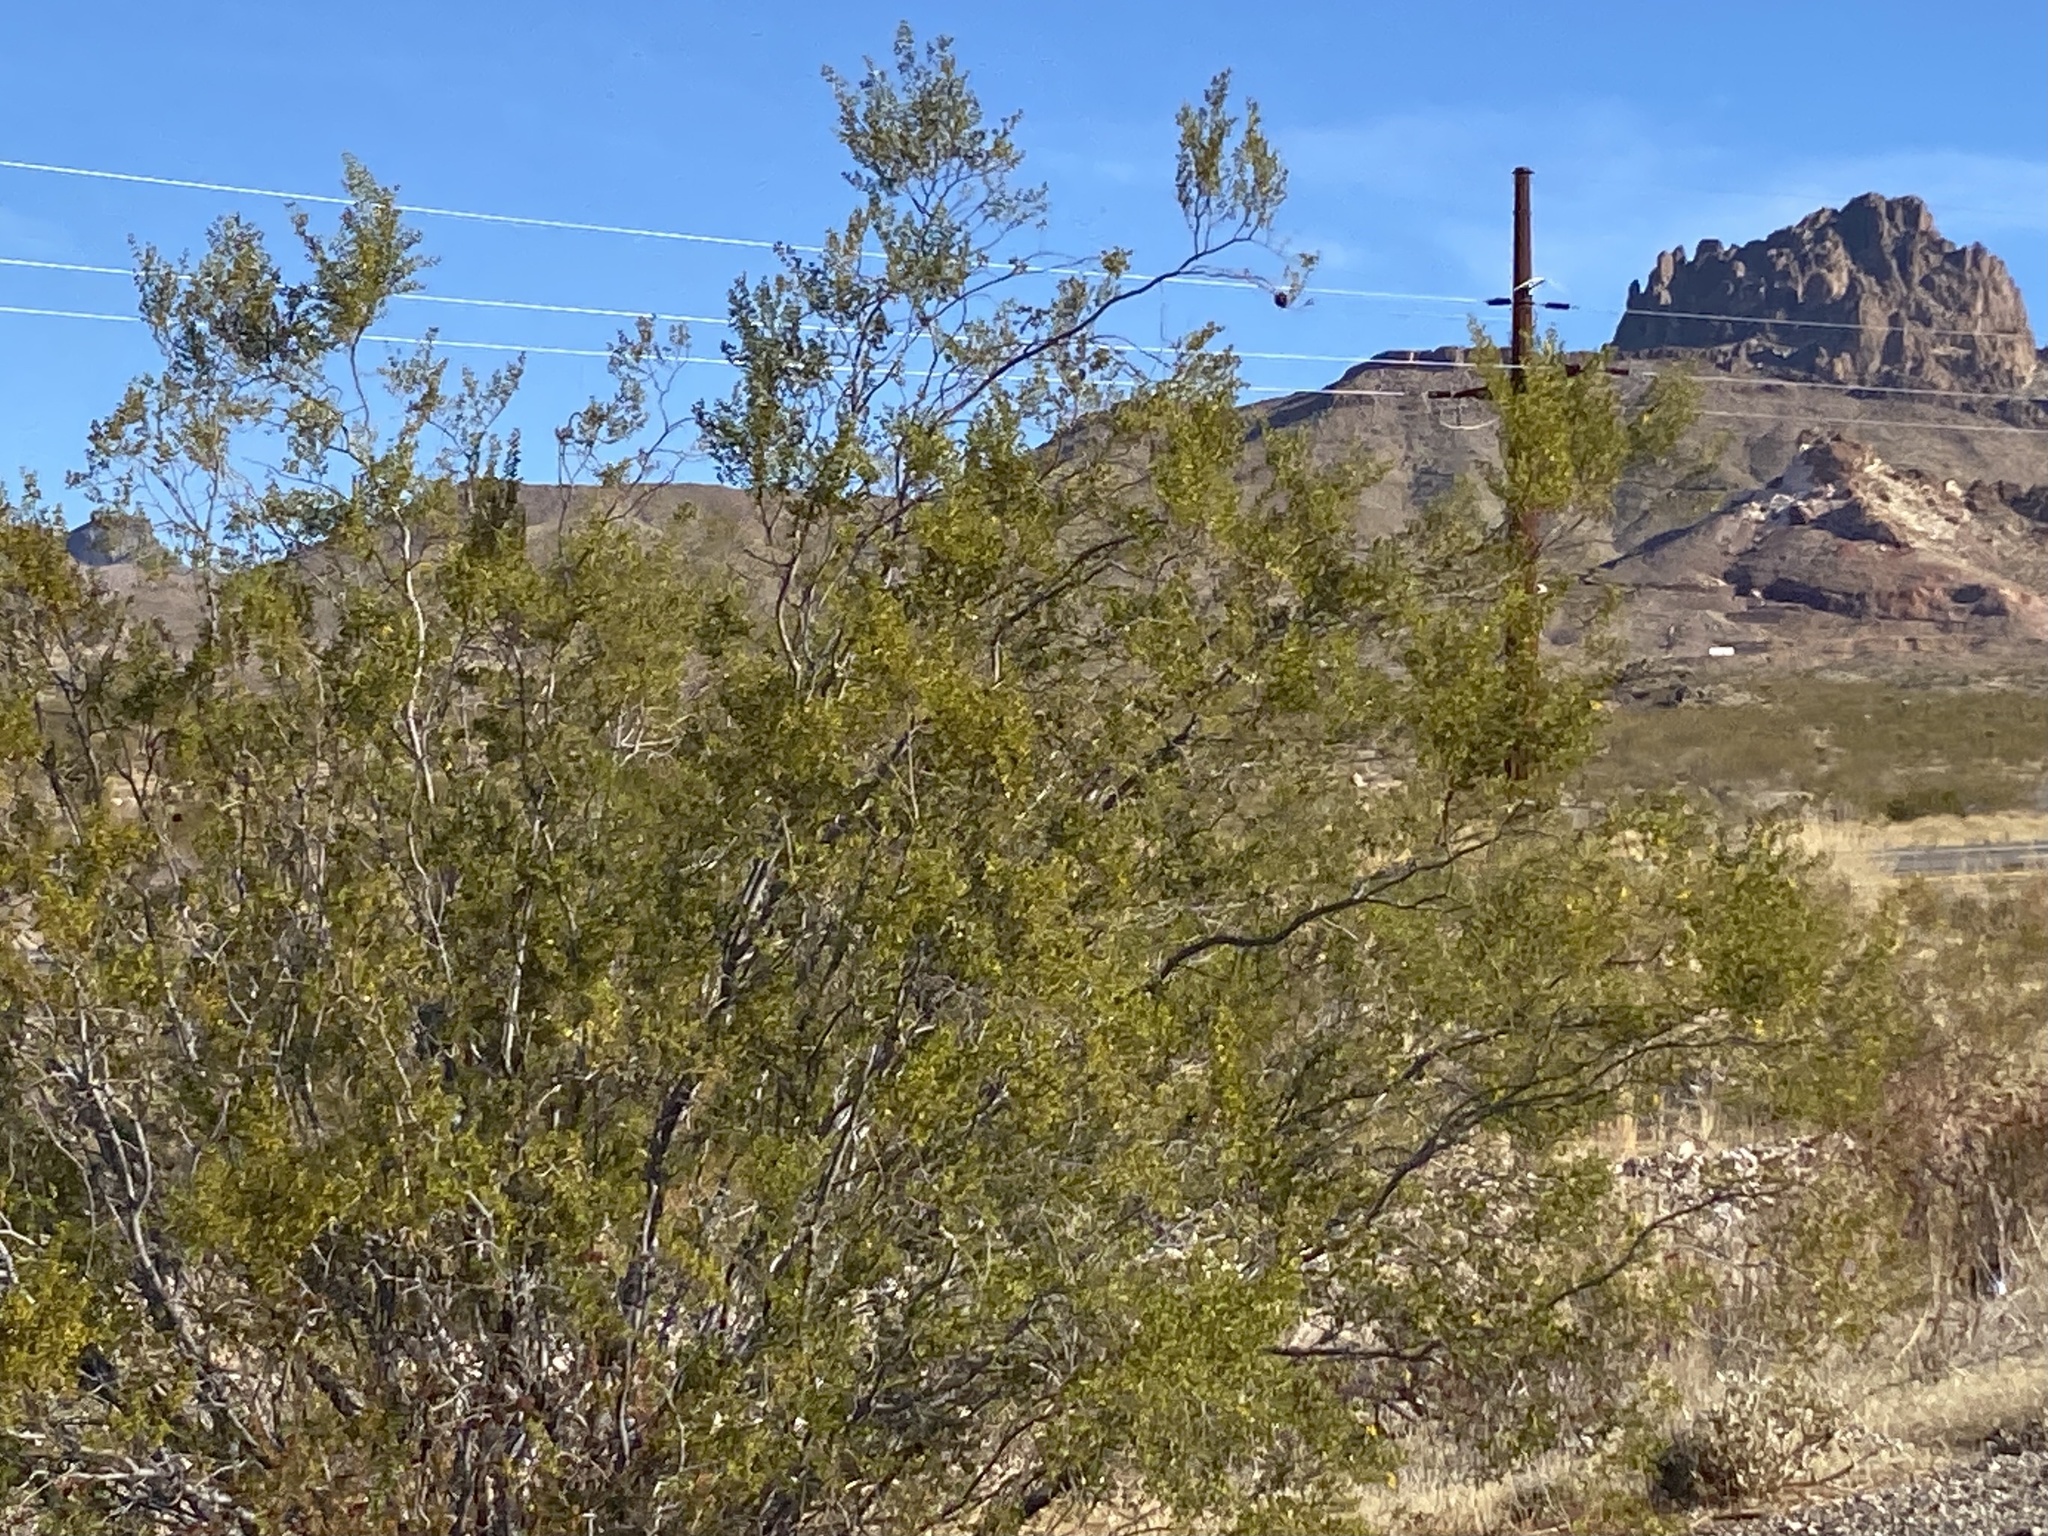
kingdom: Plantae
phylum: Tracheophyta
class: Magnoliopsida
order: Zygophyllales
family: Zygophyllaceae
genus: Larrea
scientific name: Larrea tridentata
